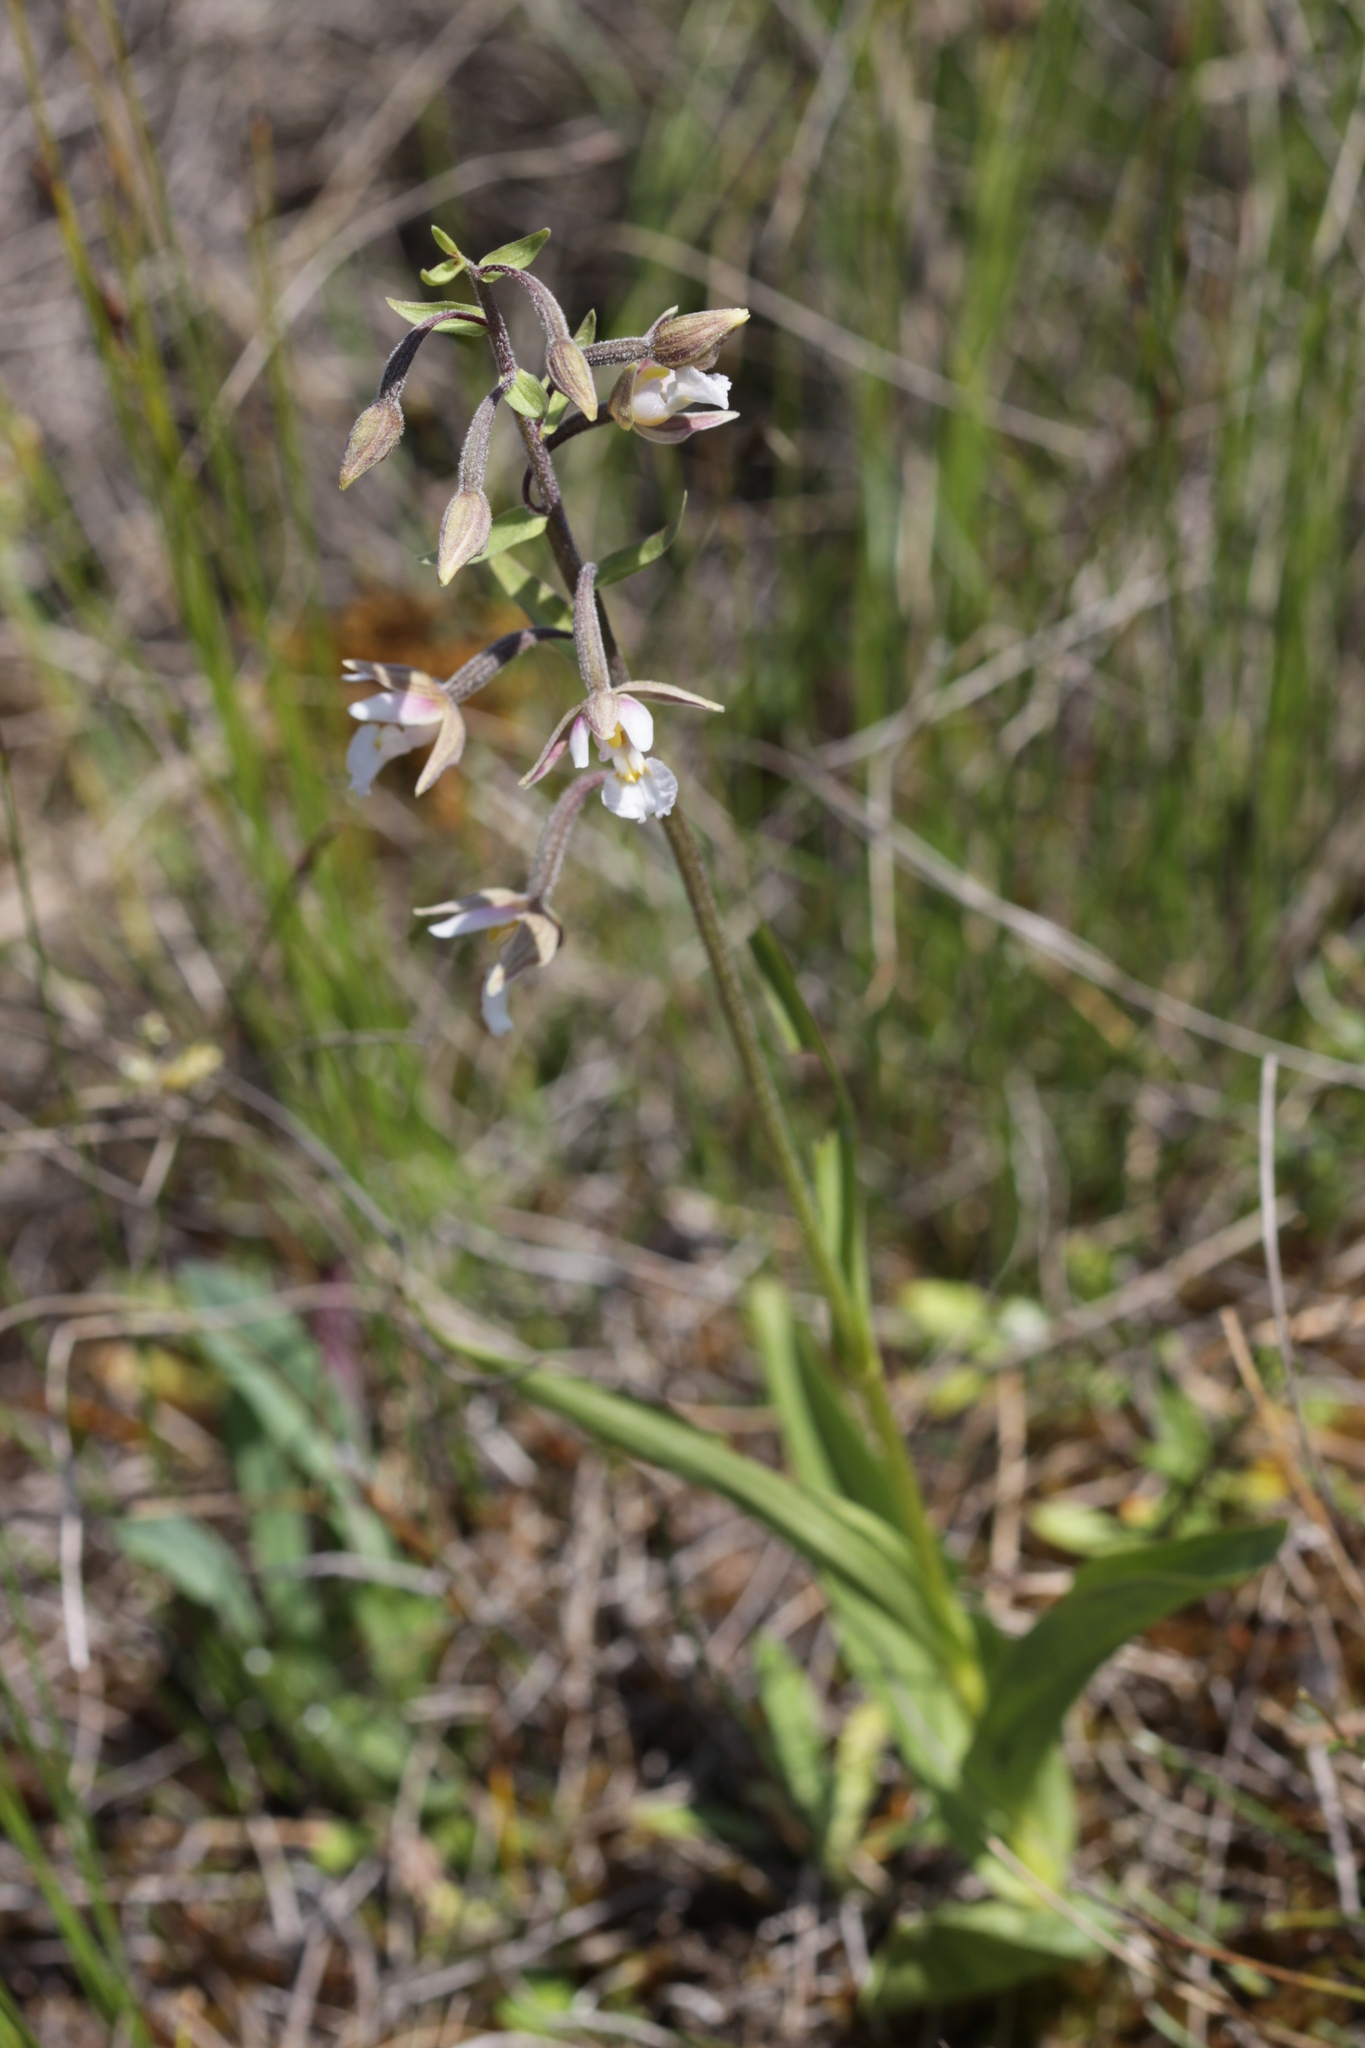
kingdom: Plantae
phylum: Tracheophyta
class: Liliopsida
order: Asparagales
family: Orchidaceae
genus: Epipactis
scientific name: Epipactis palustris
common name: Marsh helleborine
